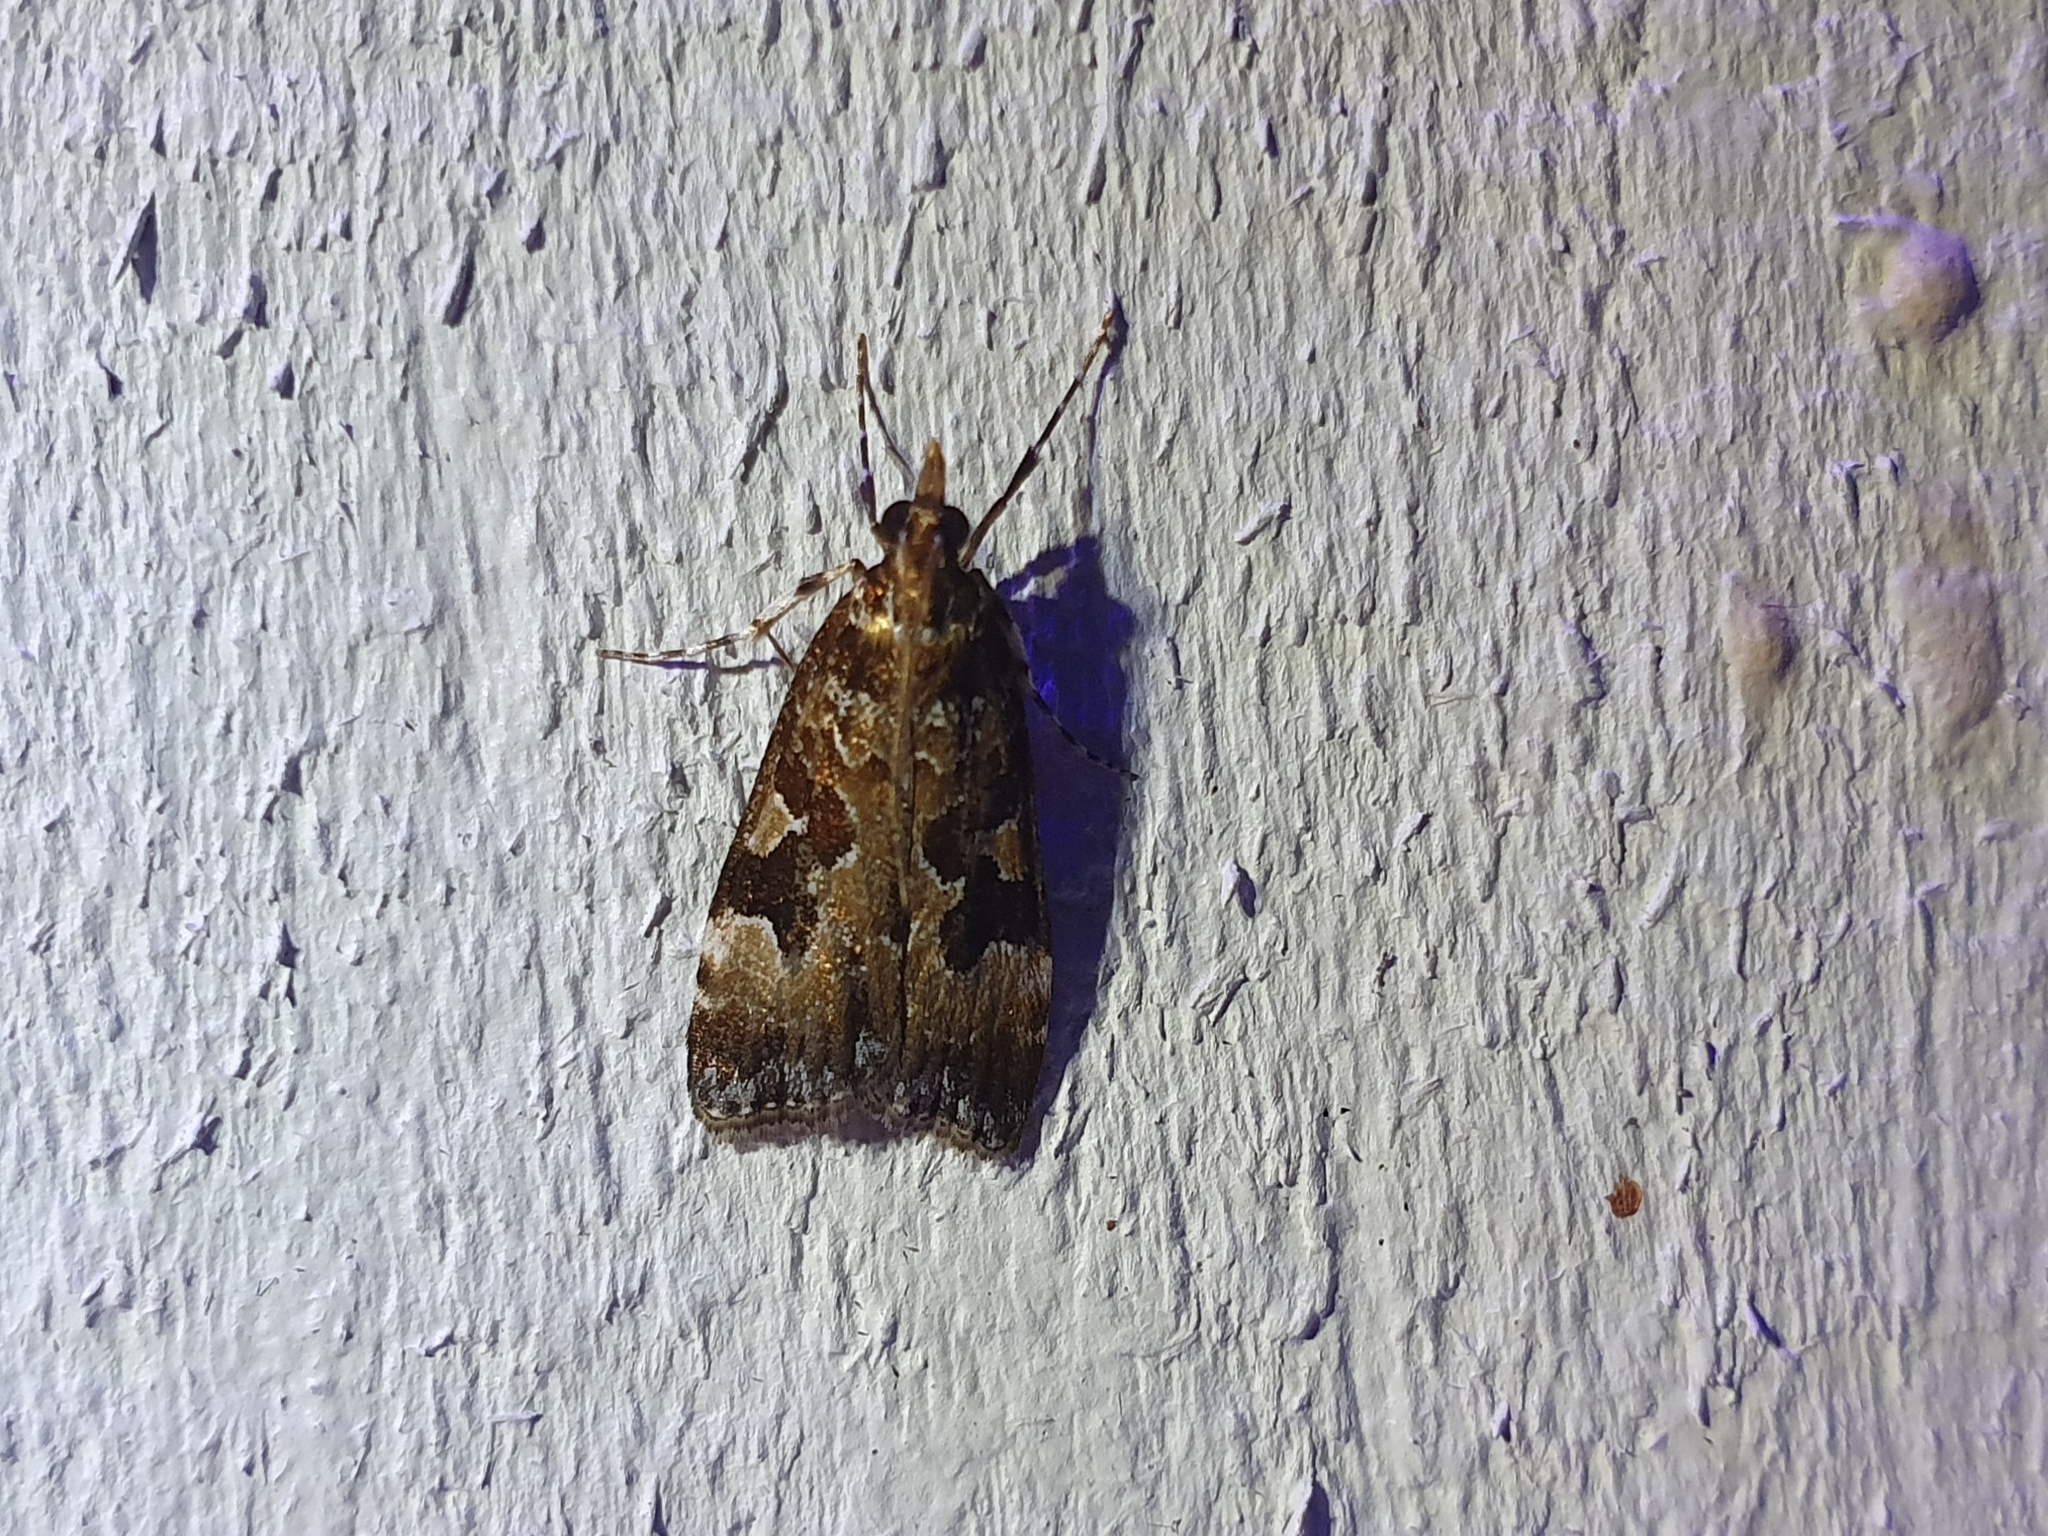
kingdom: Animalia
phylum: Arthropoda
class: Insecta
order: Lepidoptera
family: Crambidae
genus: Scoparia
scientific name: Scoparia ustimacula
